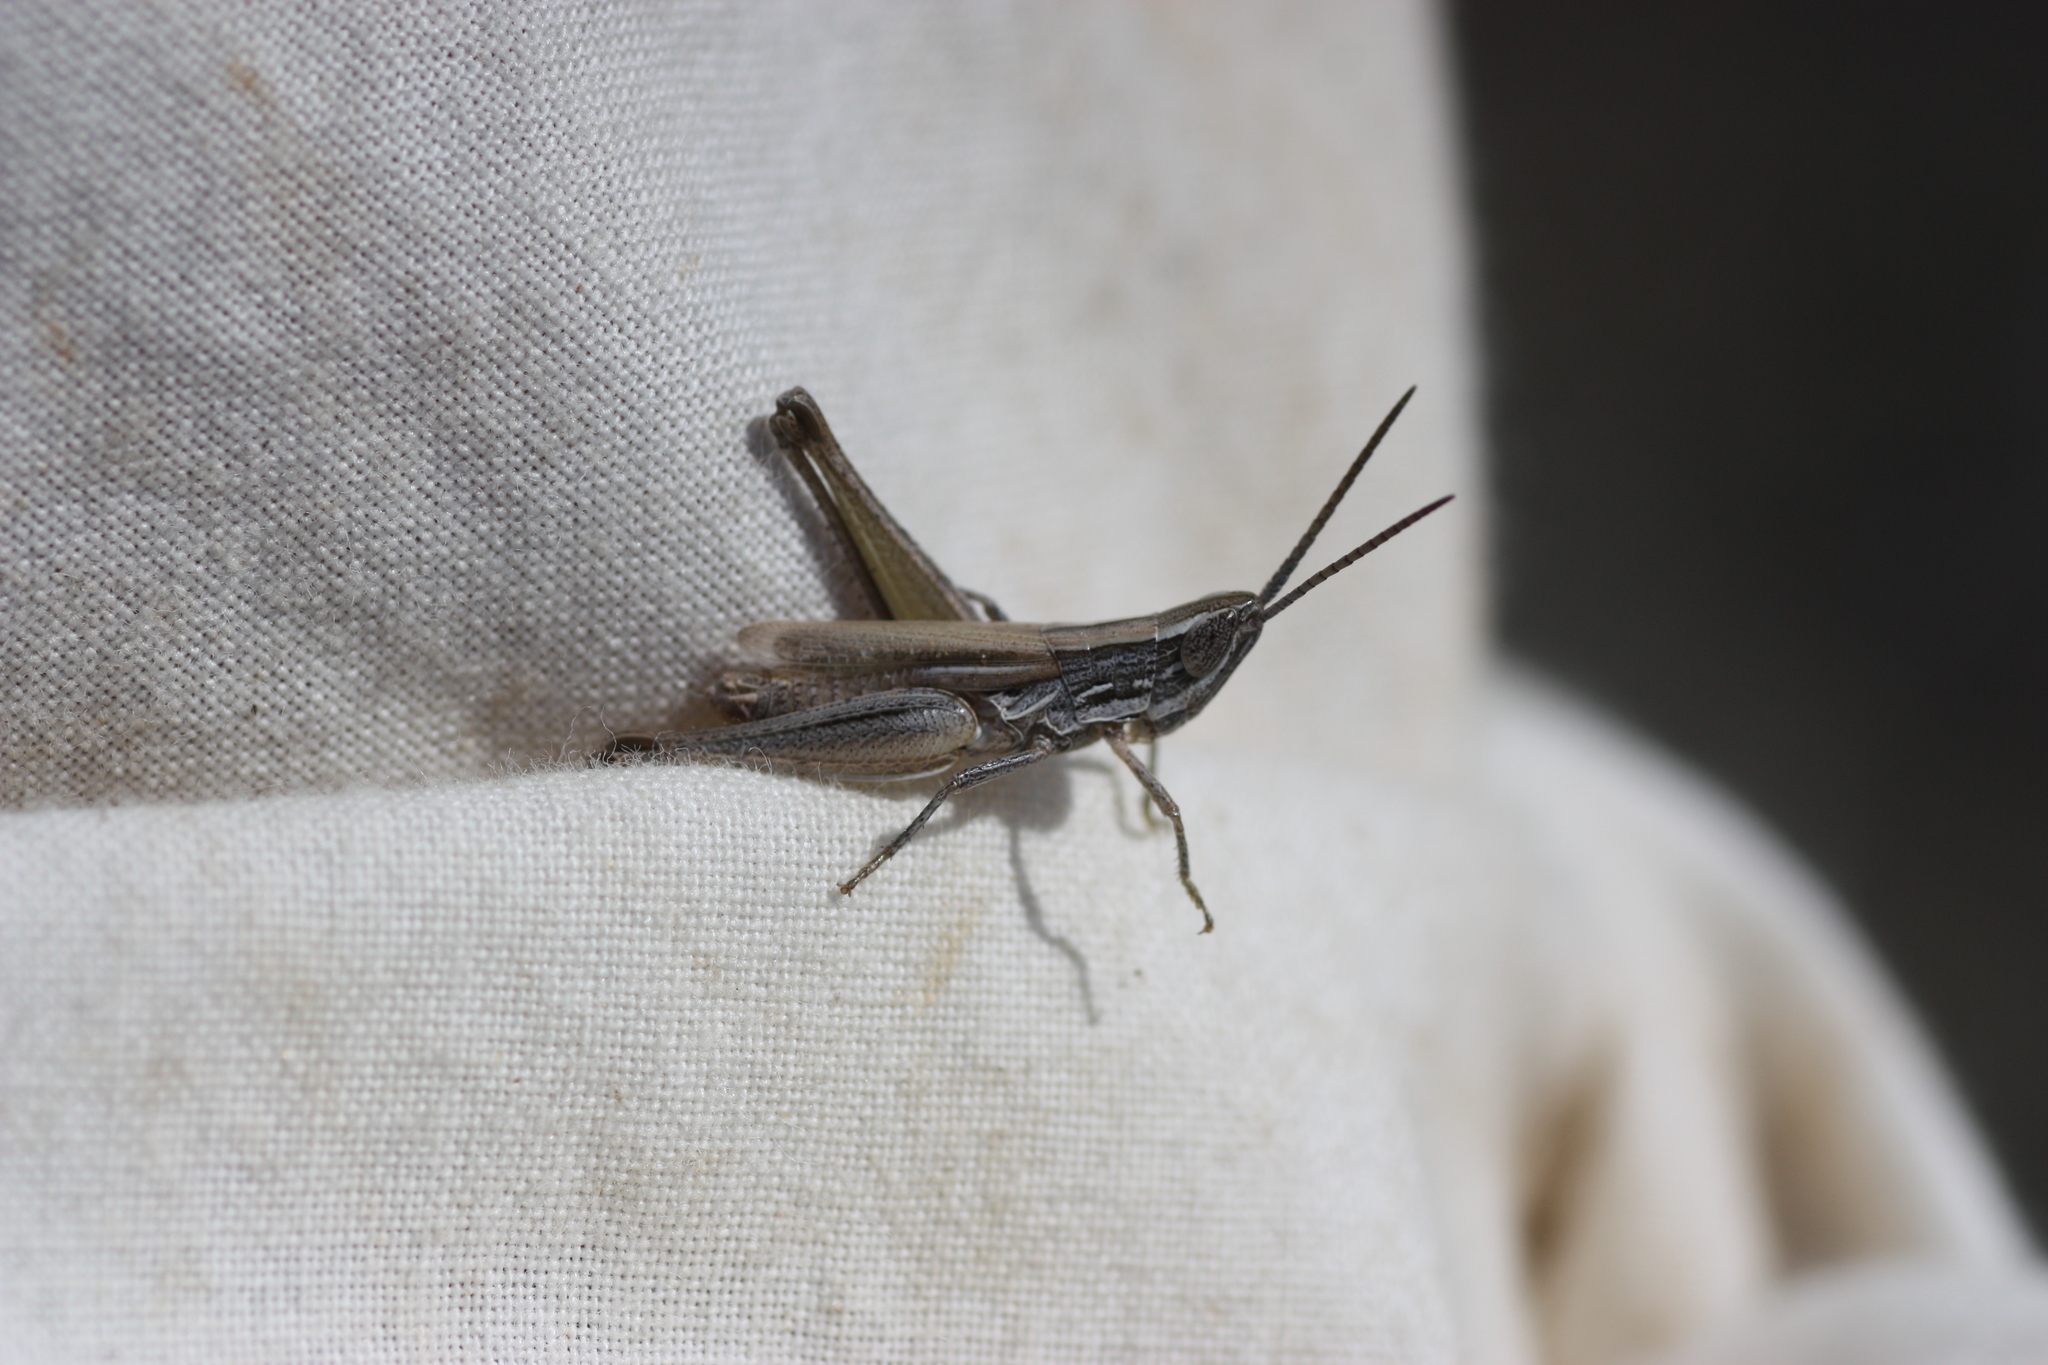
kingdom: Animalia
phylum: Arthropoda
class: Insecta
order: Orthoptera
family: Acrididae
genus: Opeia
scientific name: Opeia obscura
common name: Obscure grasshopper
